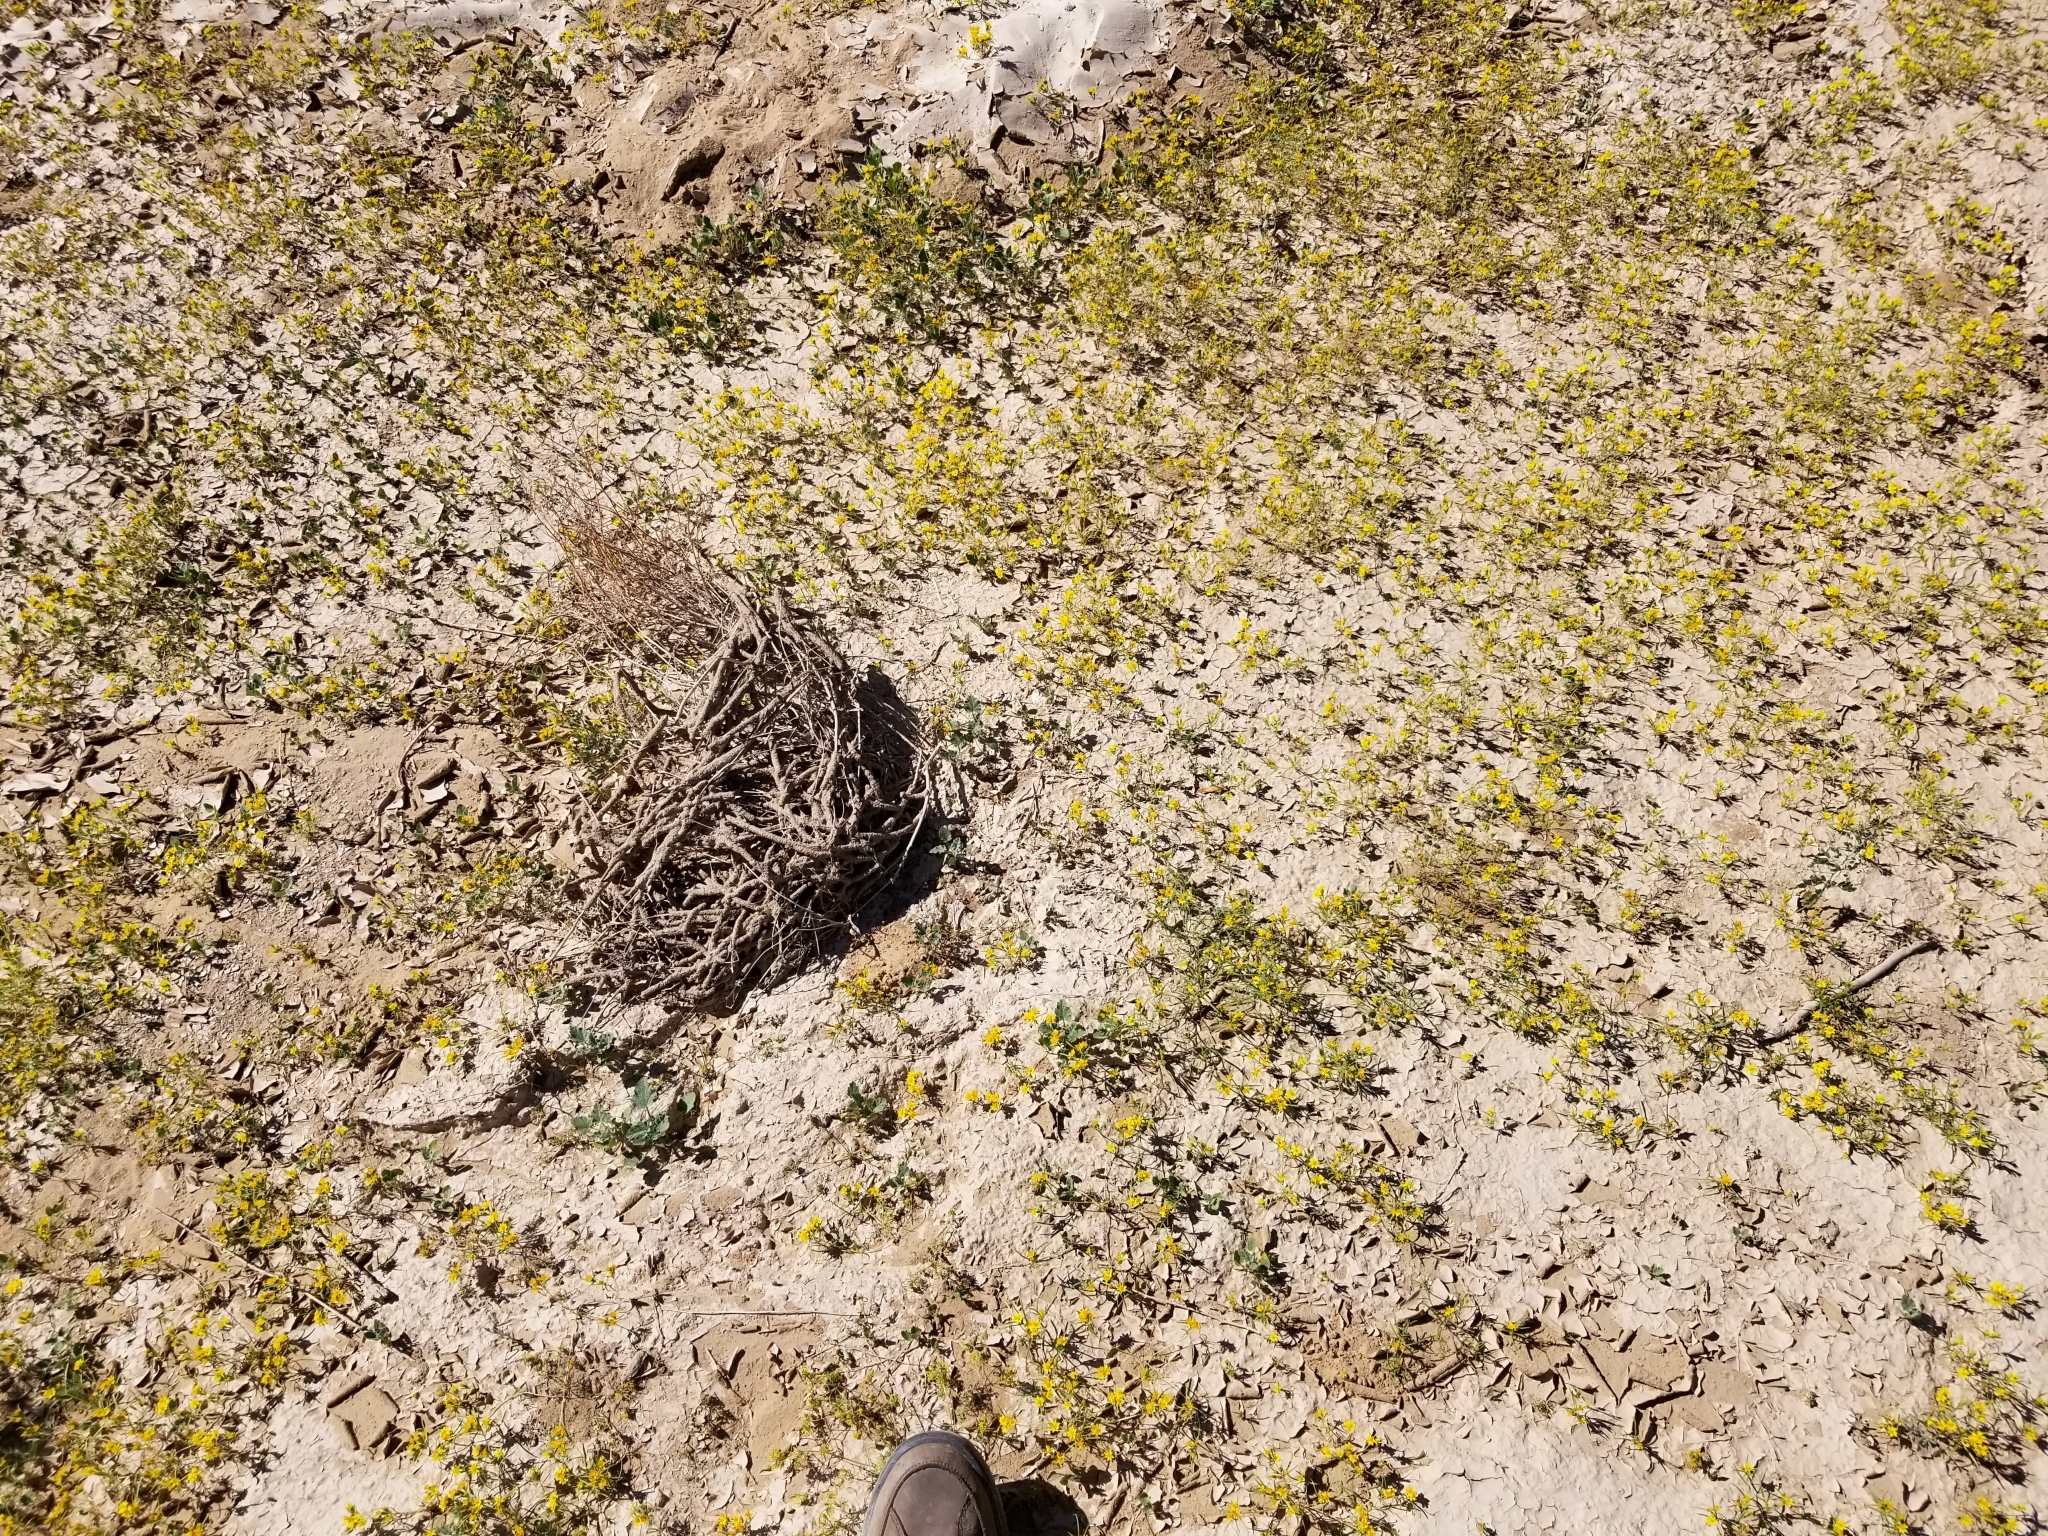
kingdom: Plantae
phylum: Tracheophyta
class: Magnoliopsida
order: Asterales
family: Asteraceae
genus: Pectis
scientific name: Pectis papposa
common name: Many-bristle chinchweed
